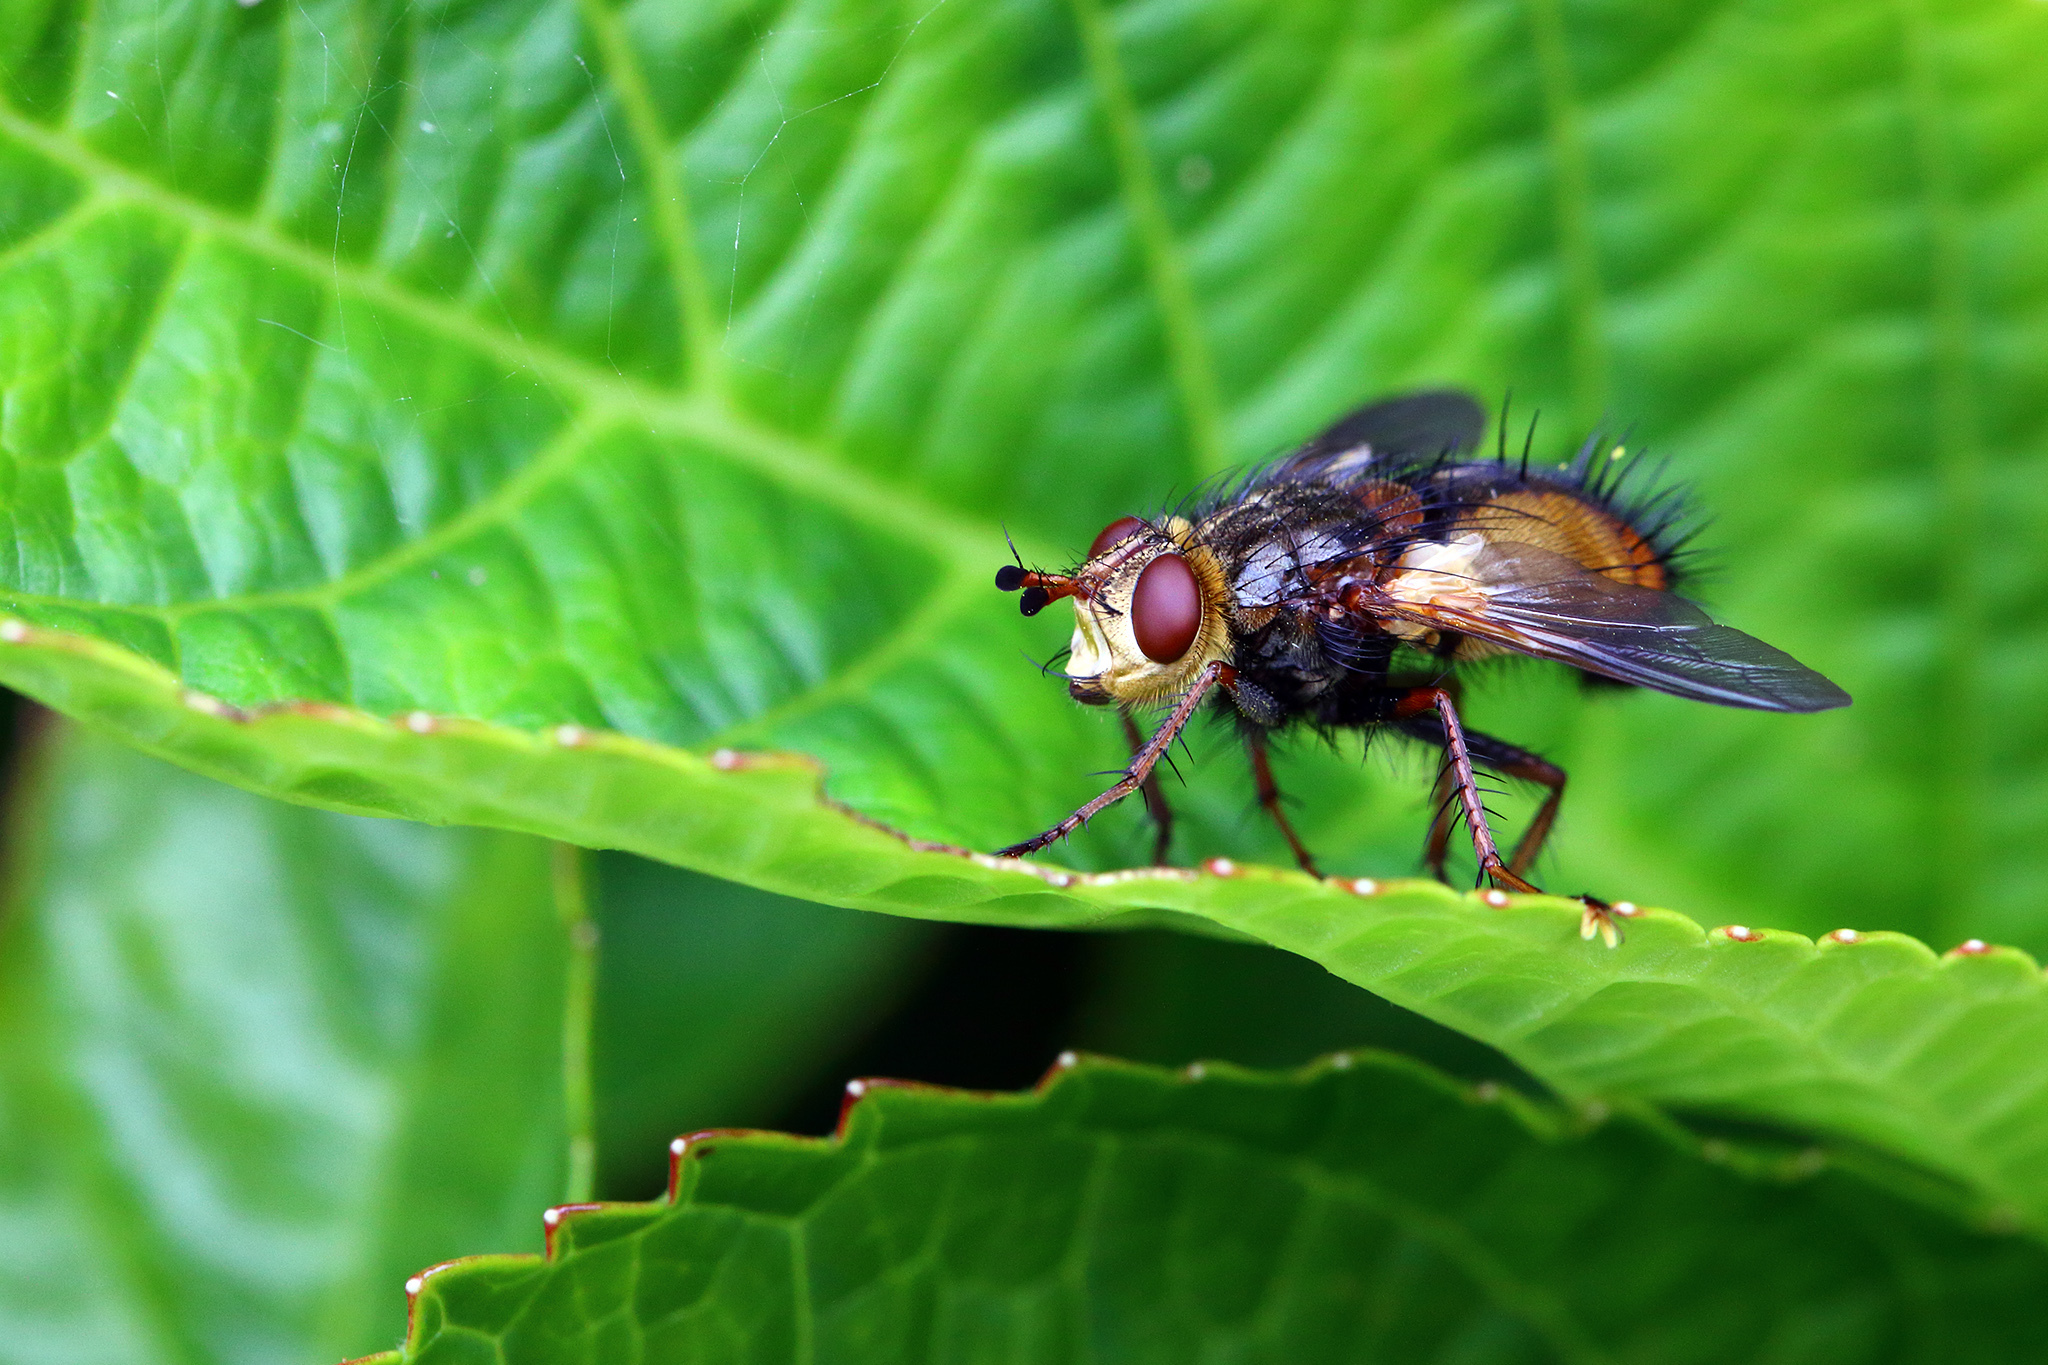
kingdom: Animalia
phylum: Arthropoda
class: Insecta
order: Diptera
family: Tachinidae
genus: Tachina
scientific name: Tachina fera
